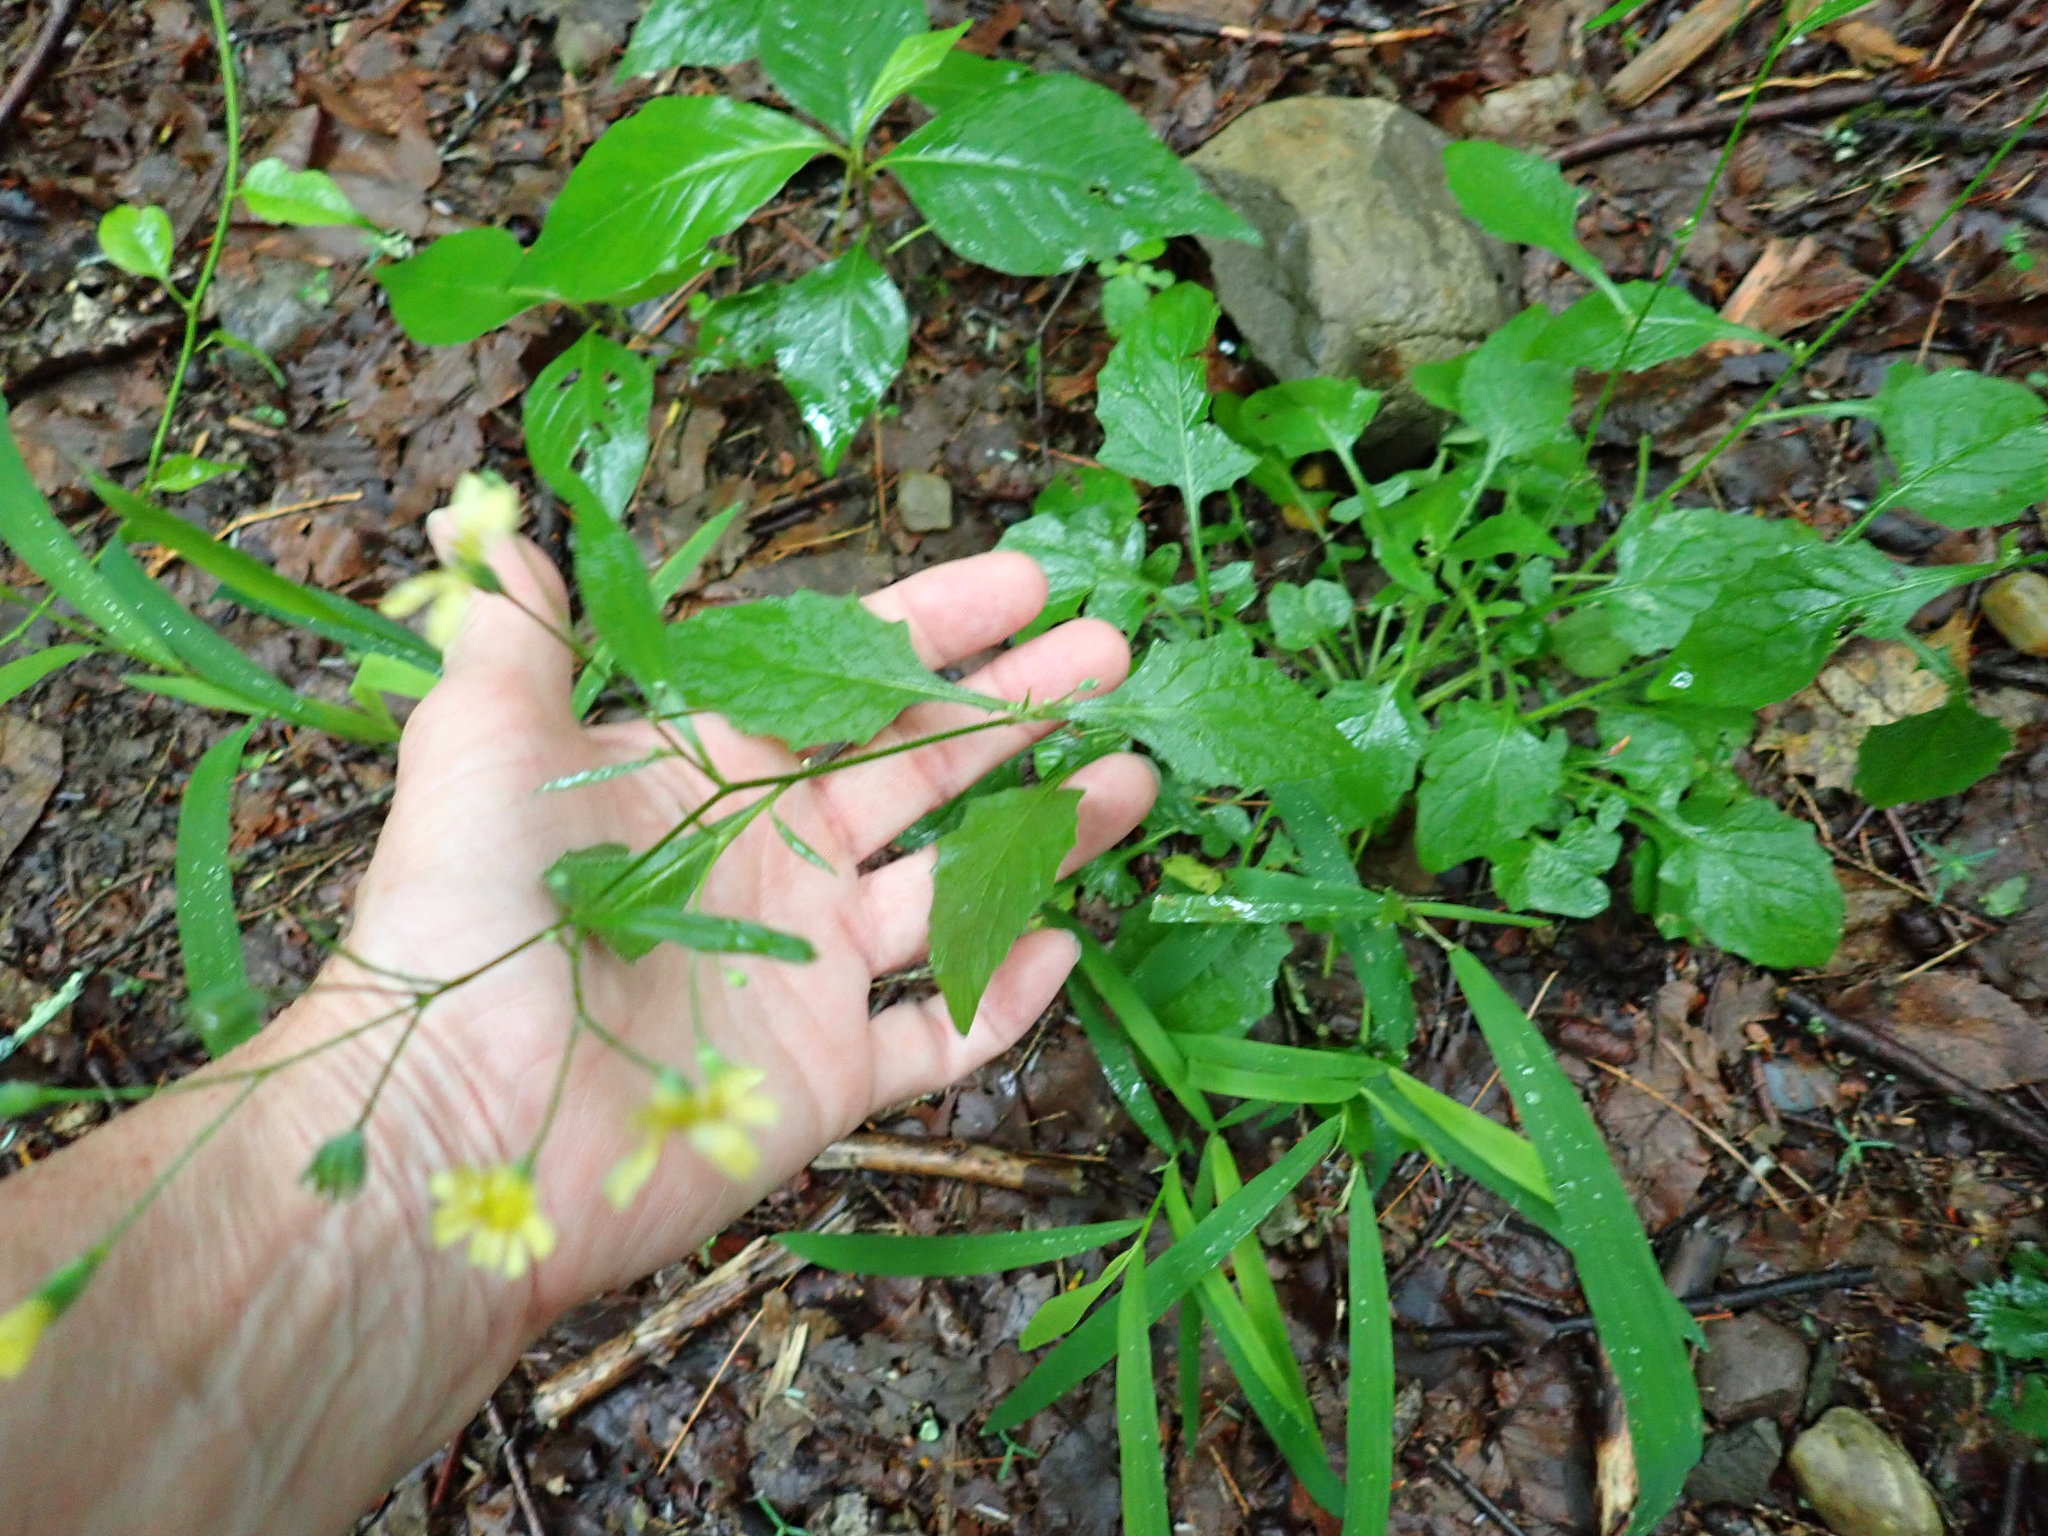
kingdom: Plantae
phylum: Tracheophyta
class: Magnoliopsida
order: Asterales
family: Asteraceae
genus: Lapsana
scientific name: Lapsana communis
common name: Nipplewort
